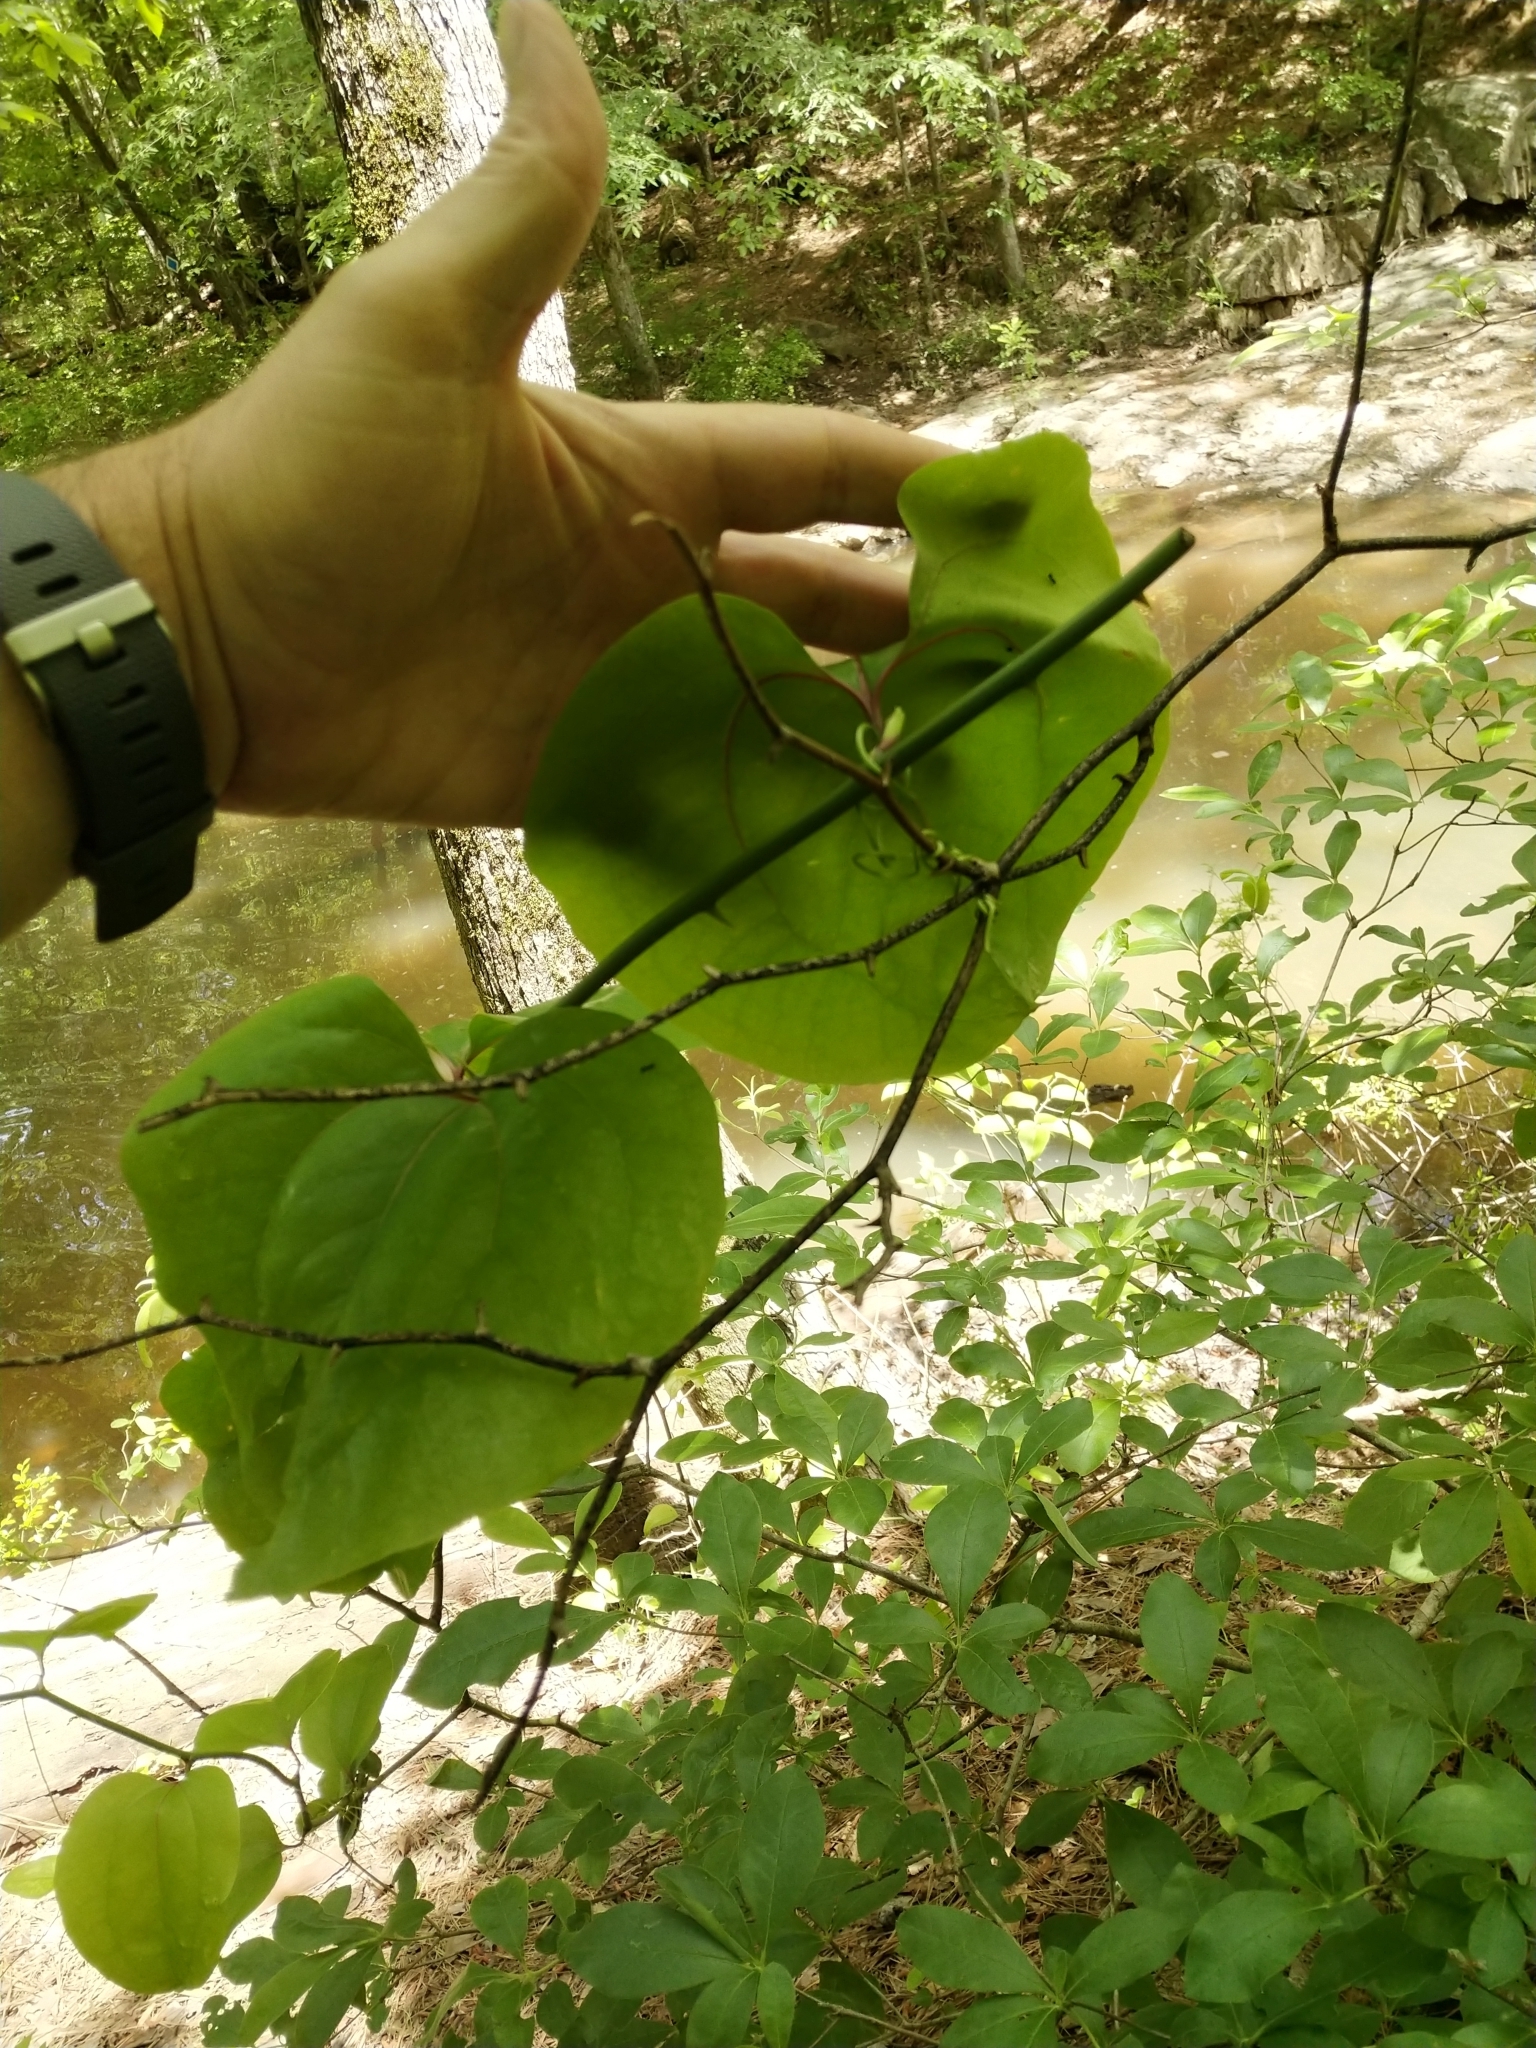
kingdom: Plantae
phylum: Tracheophyta
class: Liliopsida
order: Liliales
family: Smilacaceae
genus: Smilax
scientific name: Smilax rotundifolia
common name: Bullbriar
